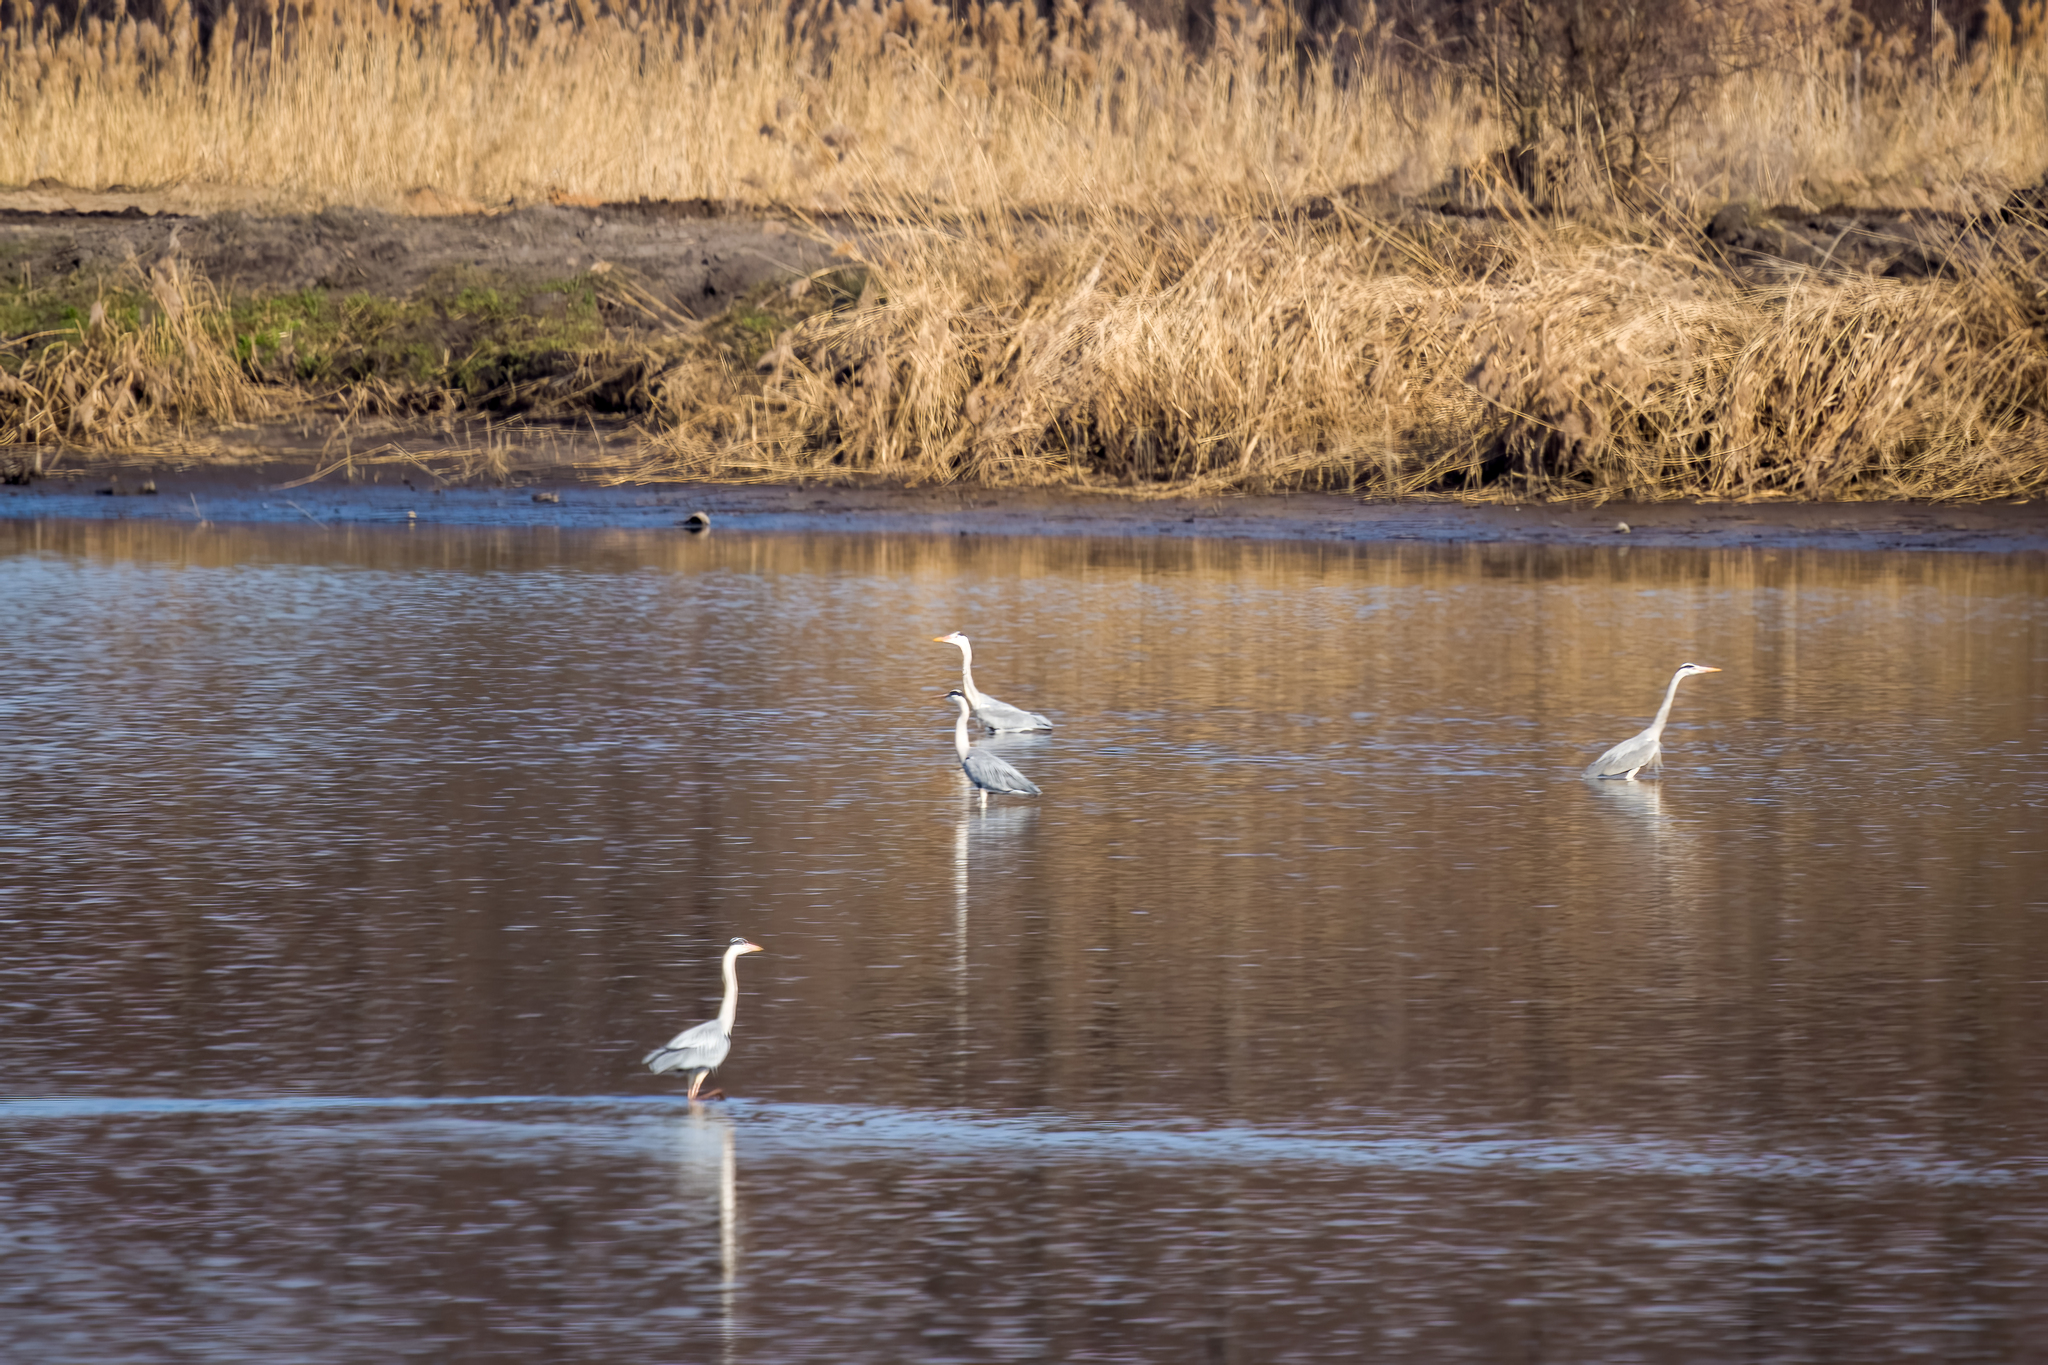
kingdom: Animalia
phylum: Chordata
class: Aves
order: Pelecaniformes
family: Ardeidae
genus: Ardea
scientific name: Ardea cinerea
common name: Grey heron
